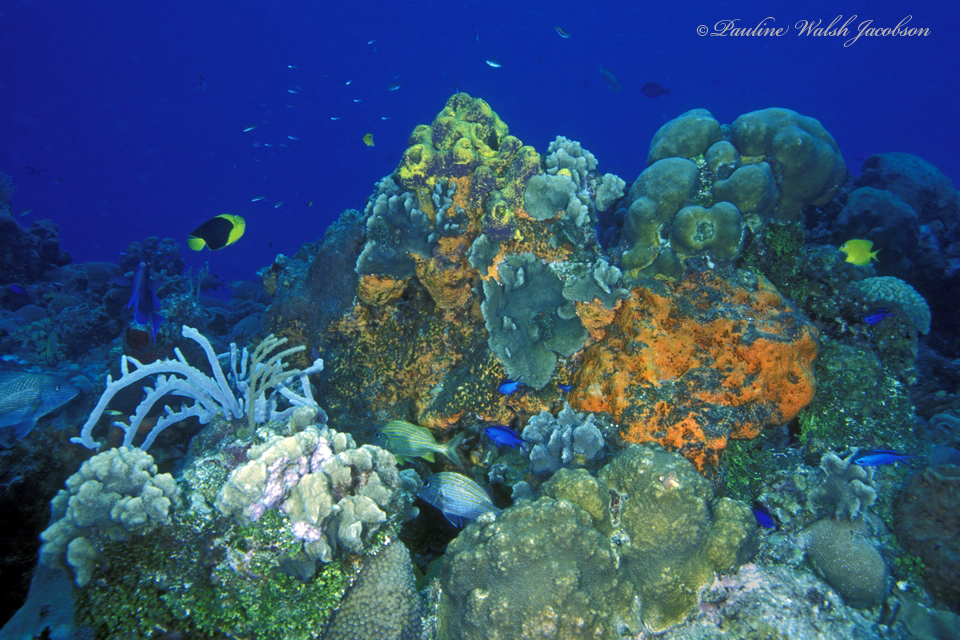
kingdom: Animalia
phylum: Chordata
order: Perciformes
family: Pomacanthidae
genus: Holacanthus
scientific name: Holacanthus tricolor
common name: Rock beauty
